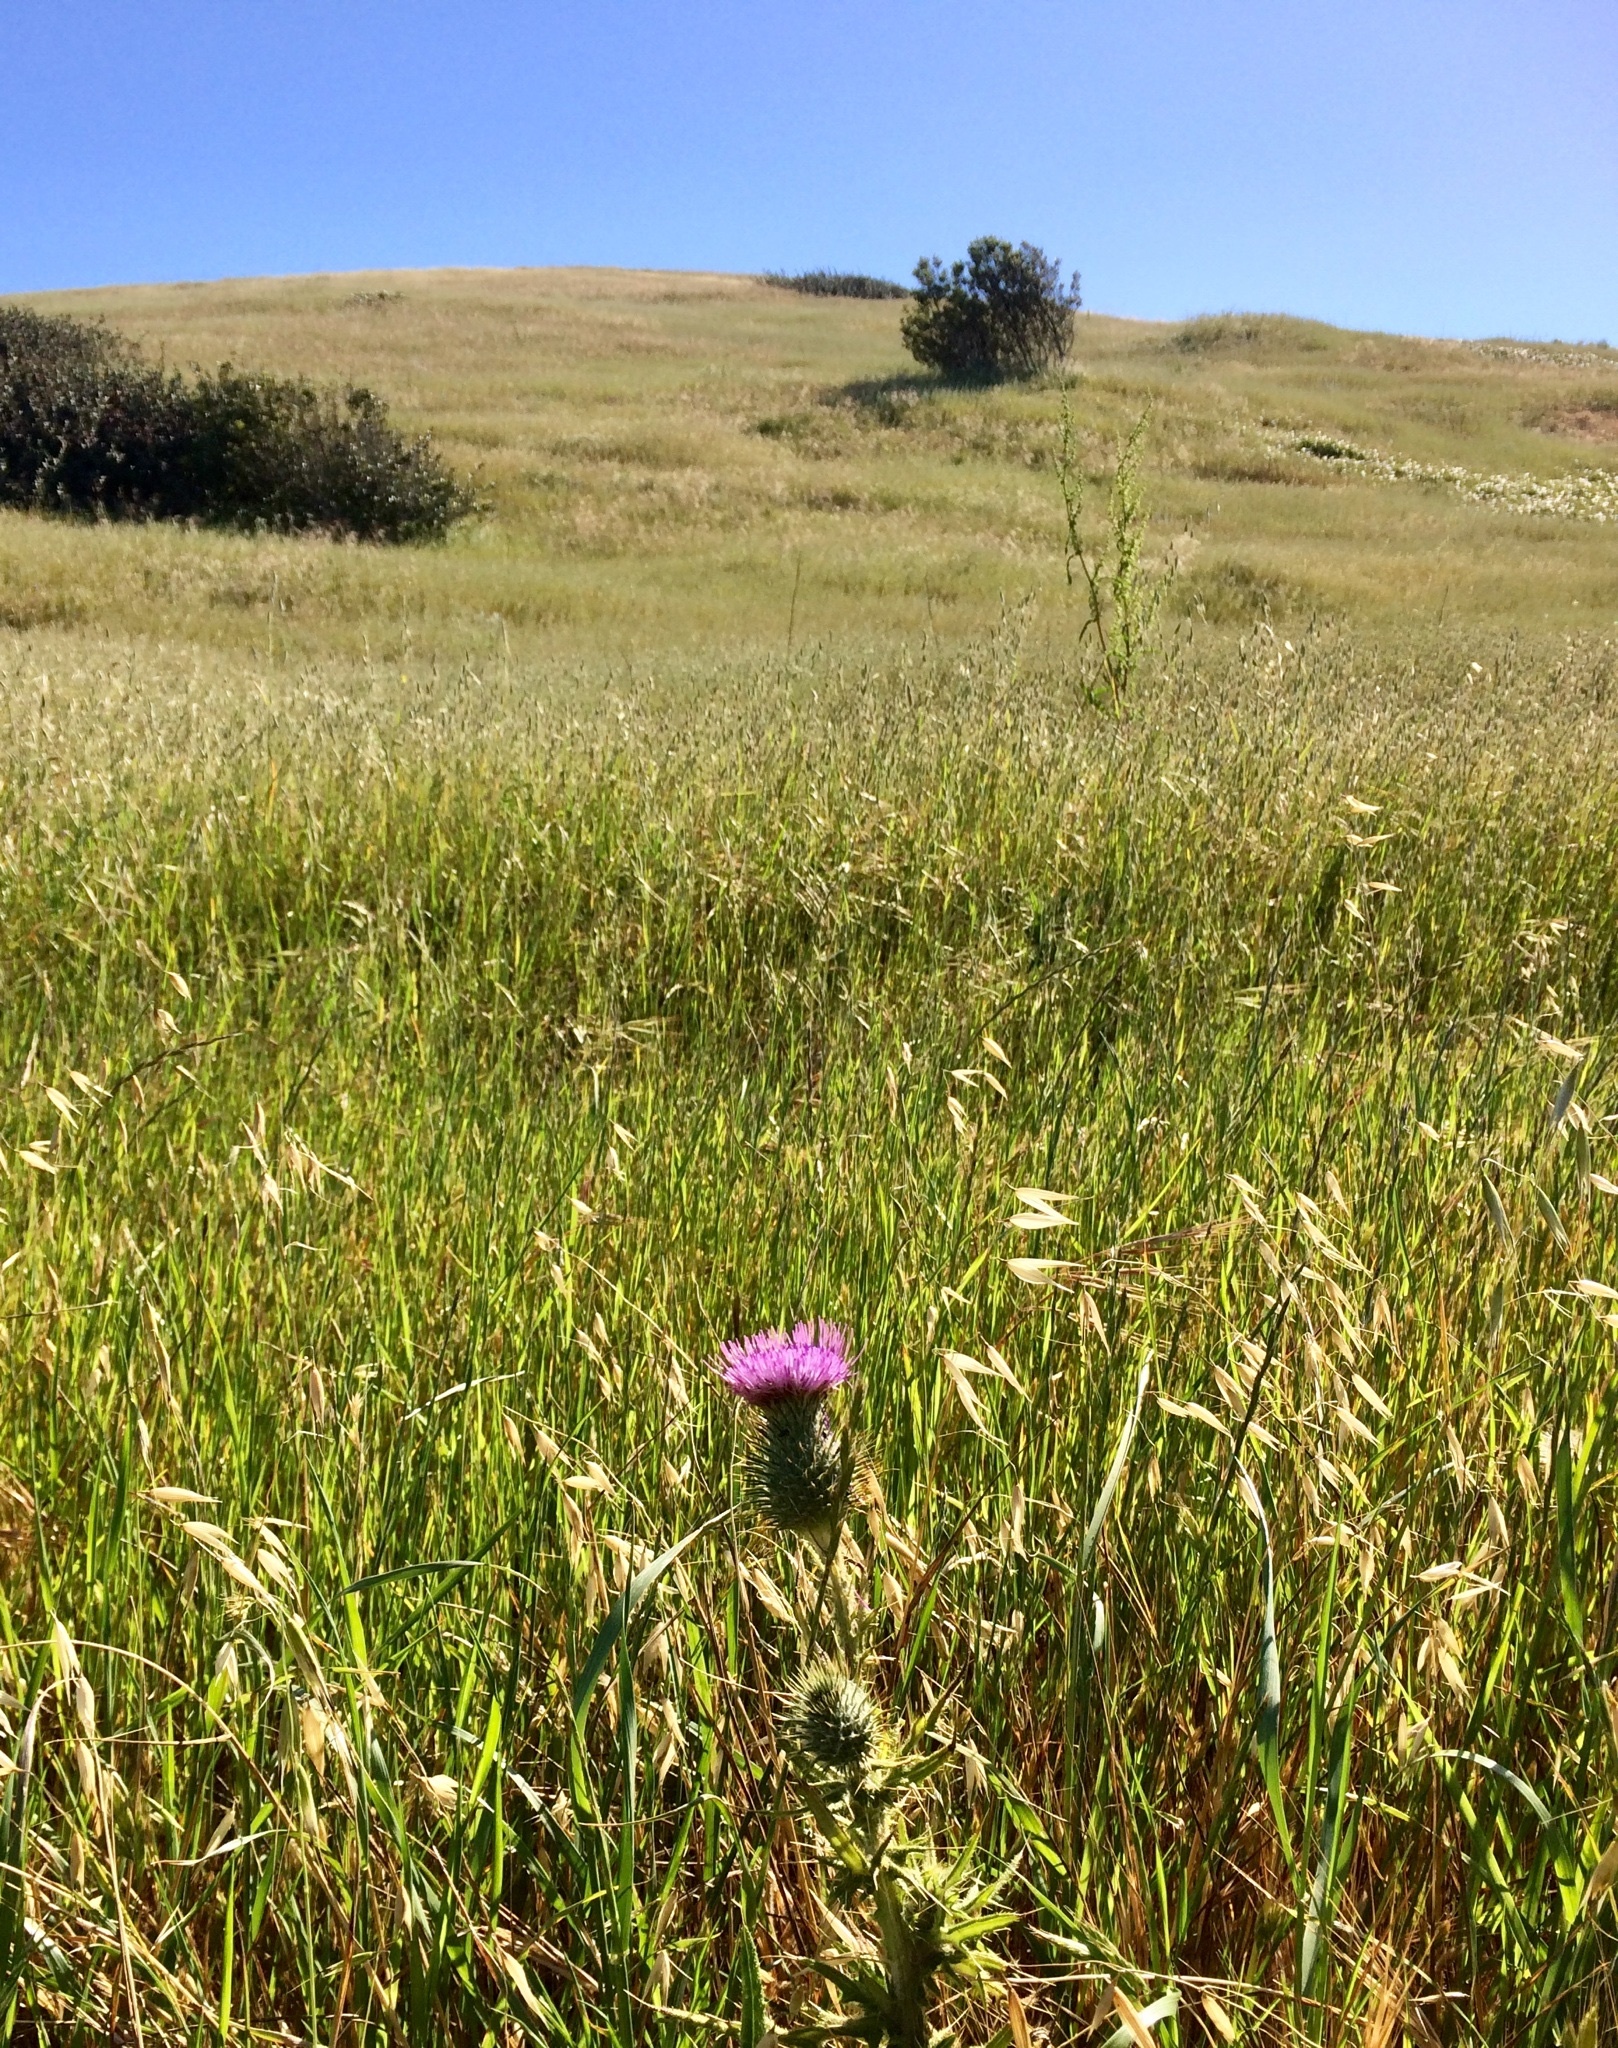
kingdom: Plantae
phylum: Tracheophyta
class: Magnoliopsida
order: Asterales
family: Asteraceae
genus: Cirsium
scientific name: Cirsium vulgare
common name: Bull thistle
